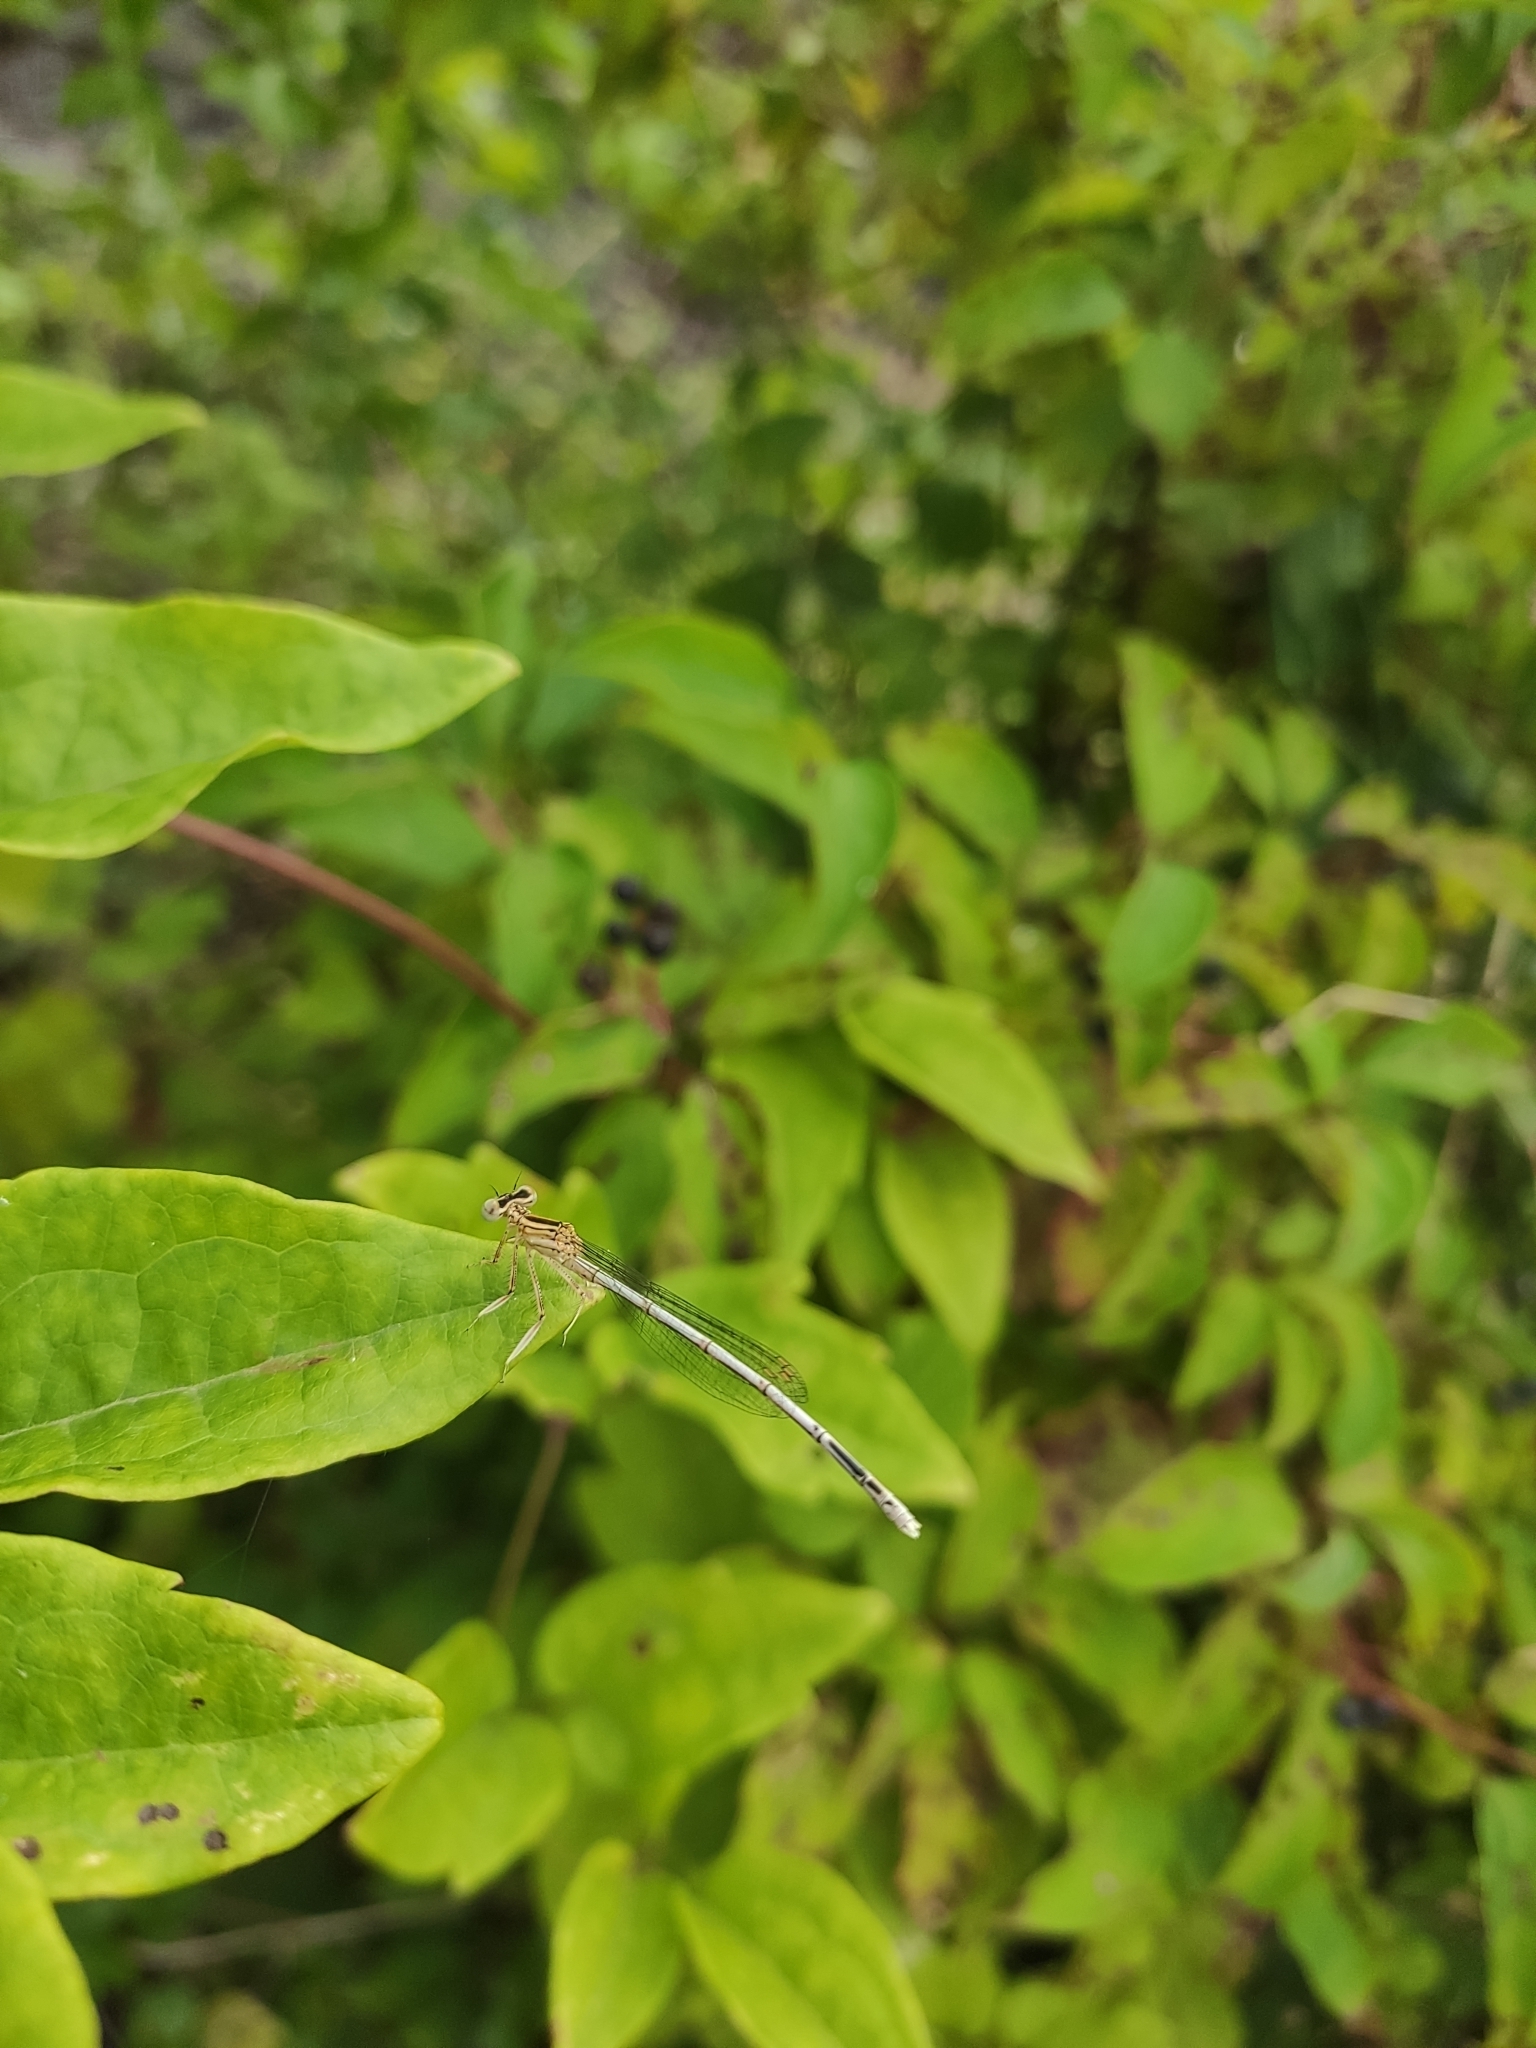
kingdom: Animalia
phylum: Arthropoda
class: Insecta
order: Odonata
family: Platycnemididae
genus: Platycnemis
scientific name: Platycnemis pennipes
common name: White-legged damselfly
